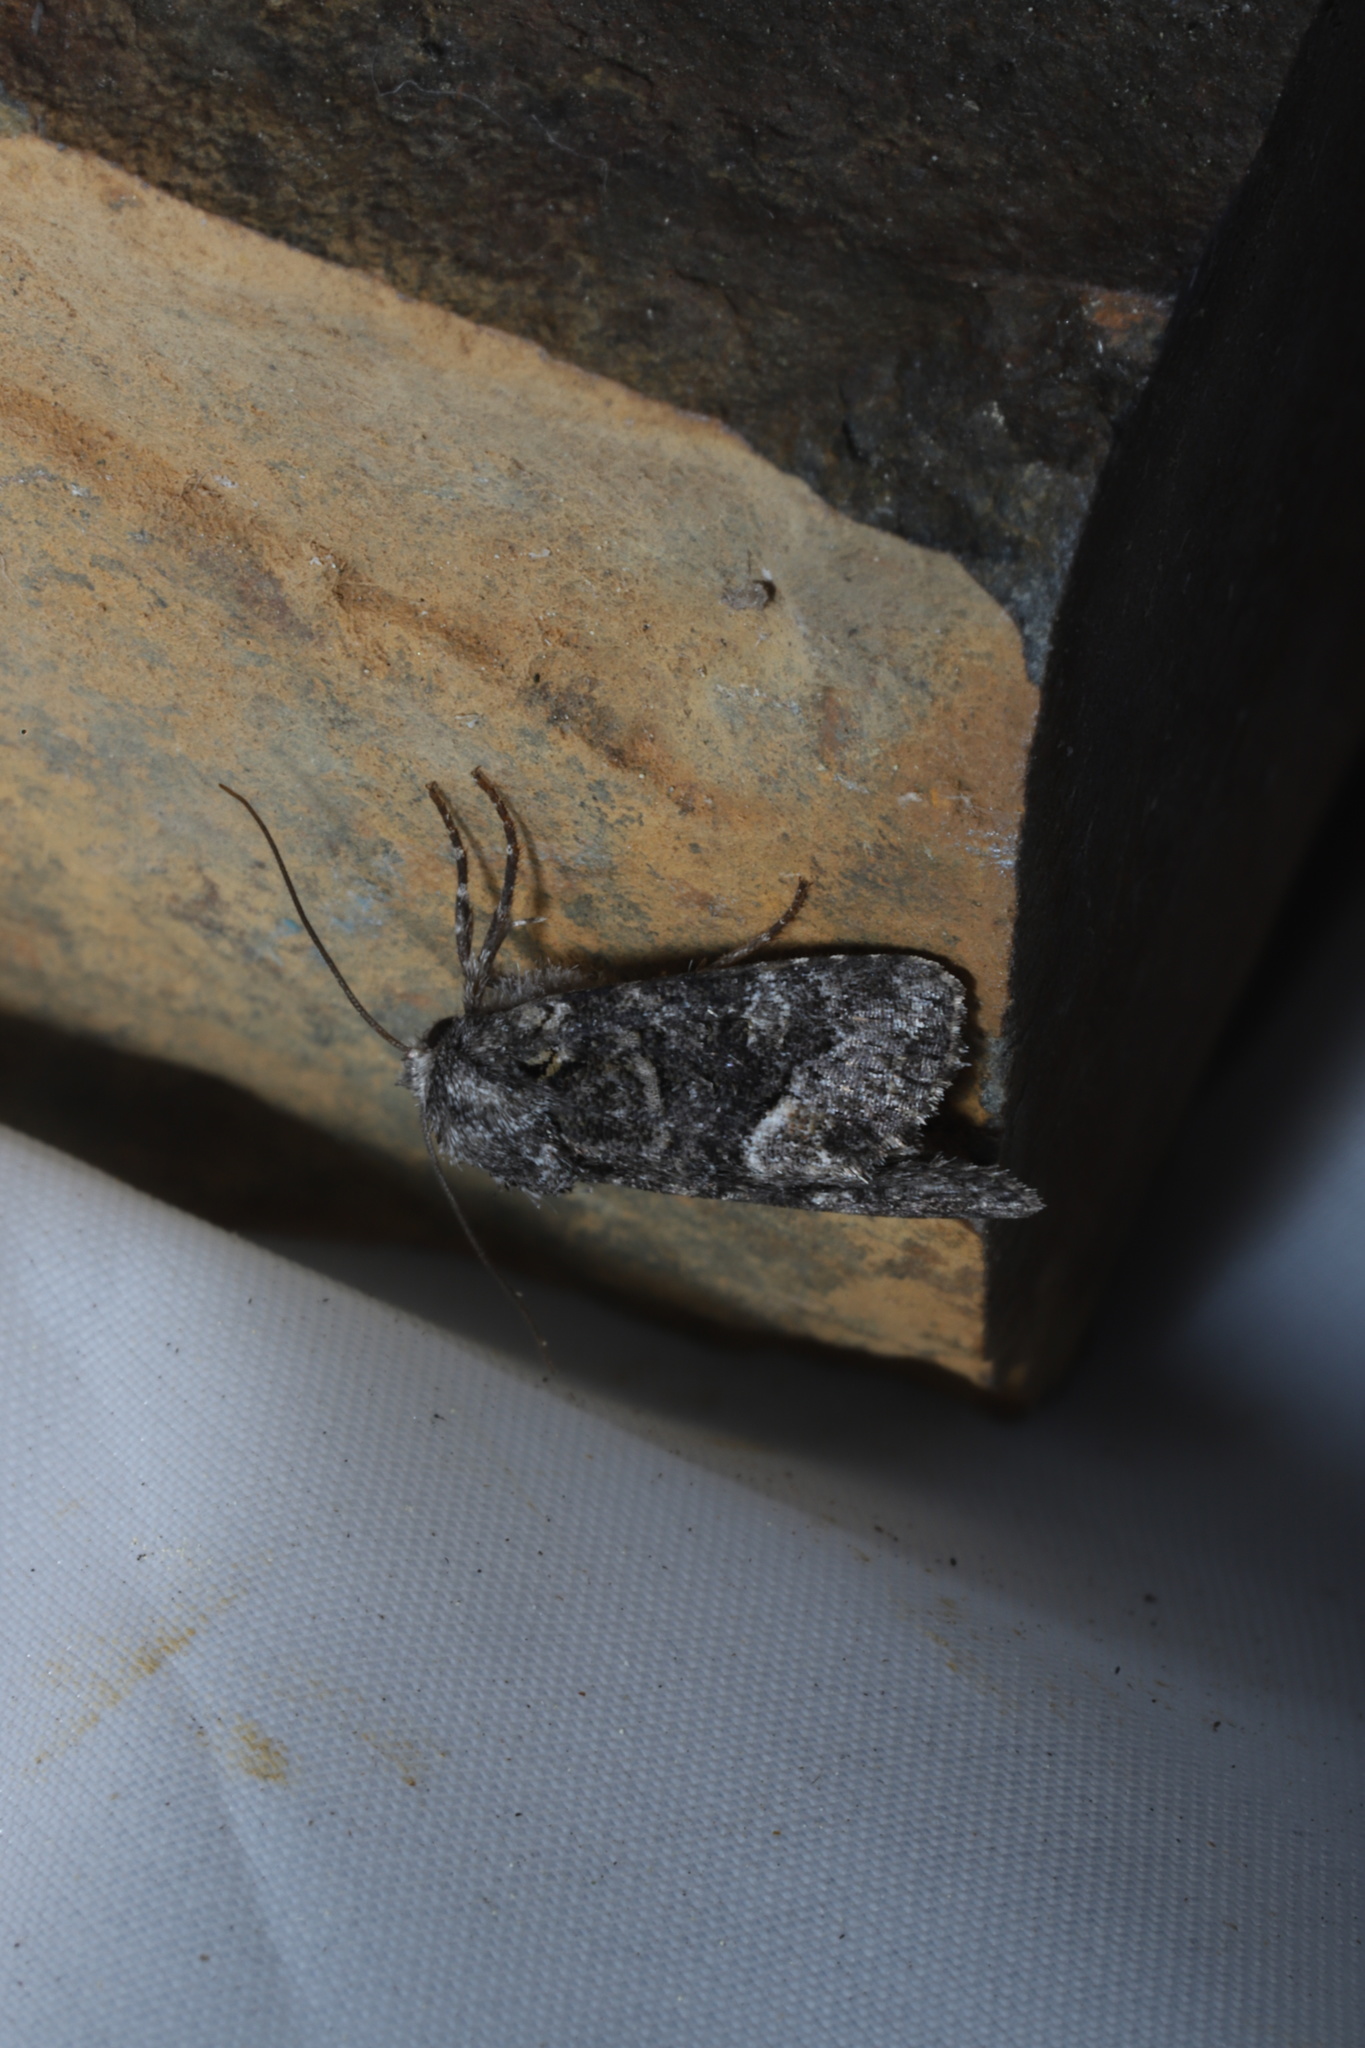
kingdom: Animalia
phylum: Arthropoda
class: Insecta
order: Lepidoptera
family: Noctuidae
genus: Lacinipolia
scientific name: Lacinipolia olivacea
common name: Olive arches moth
